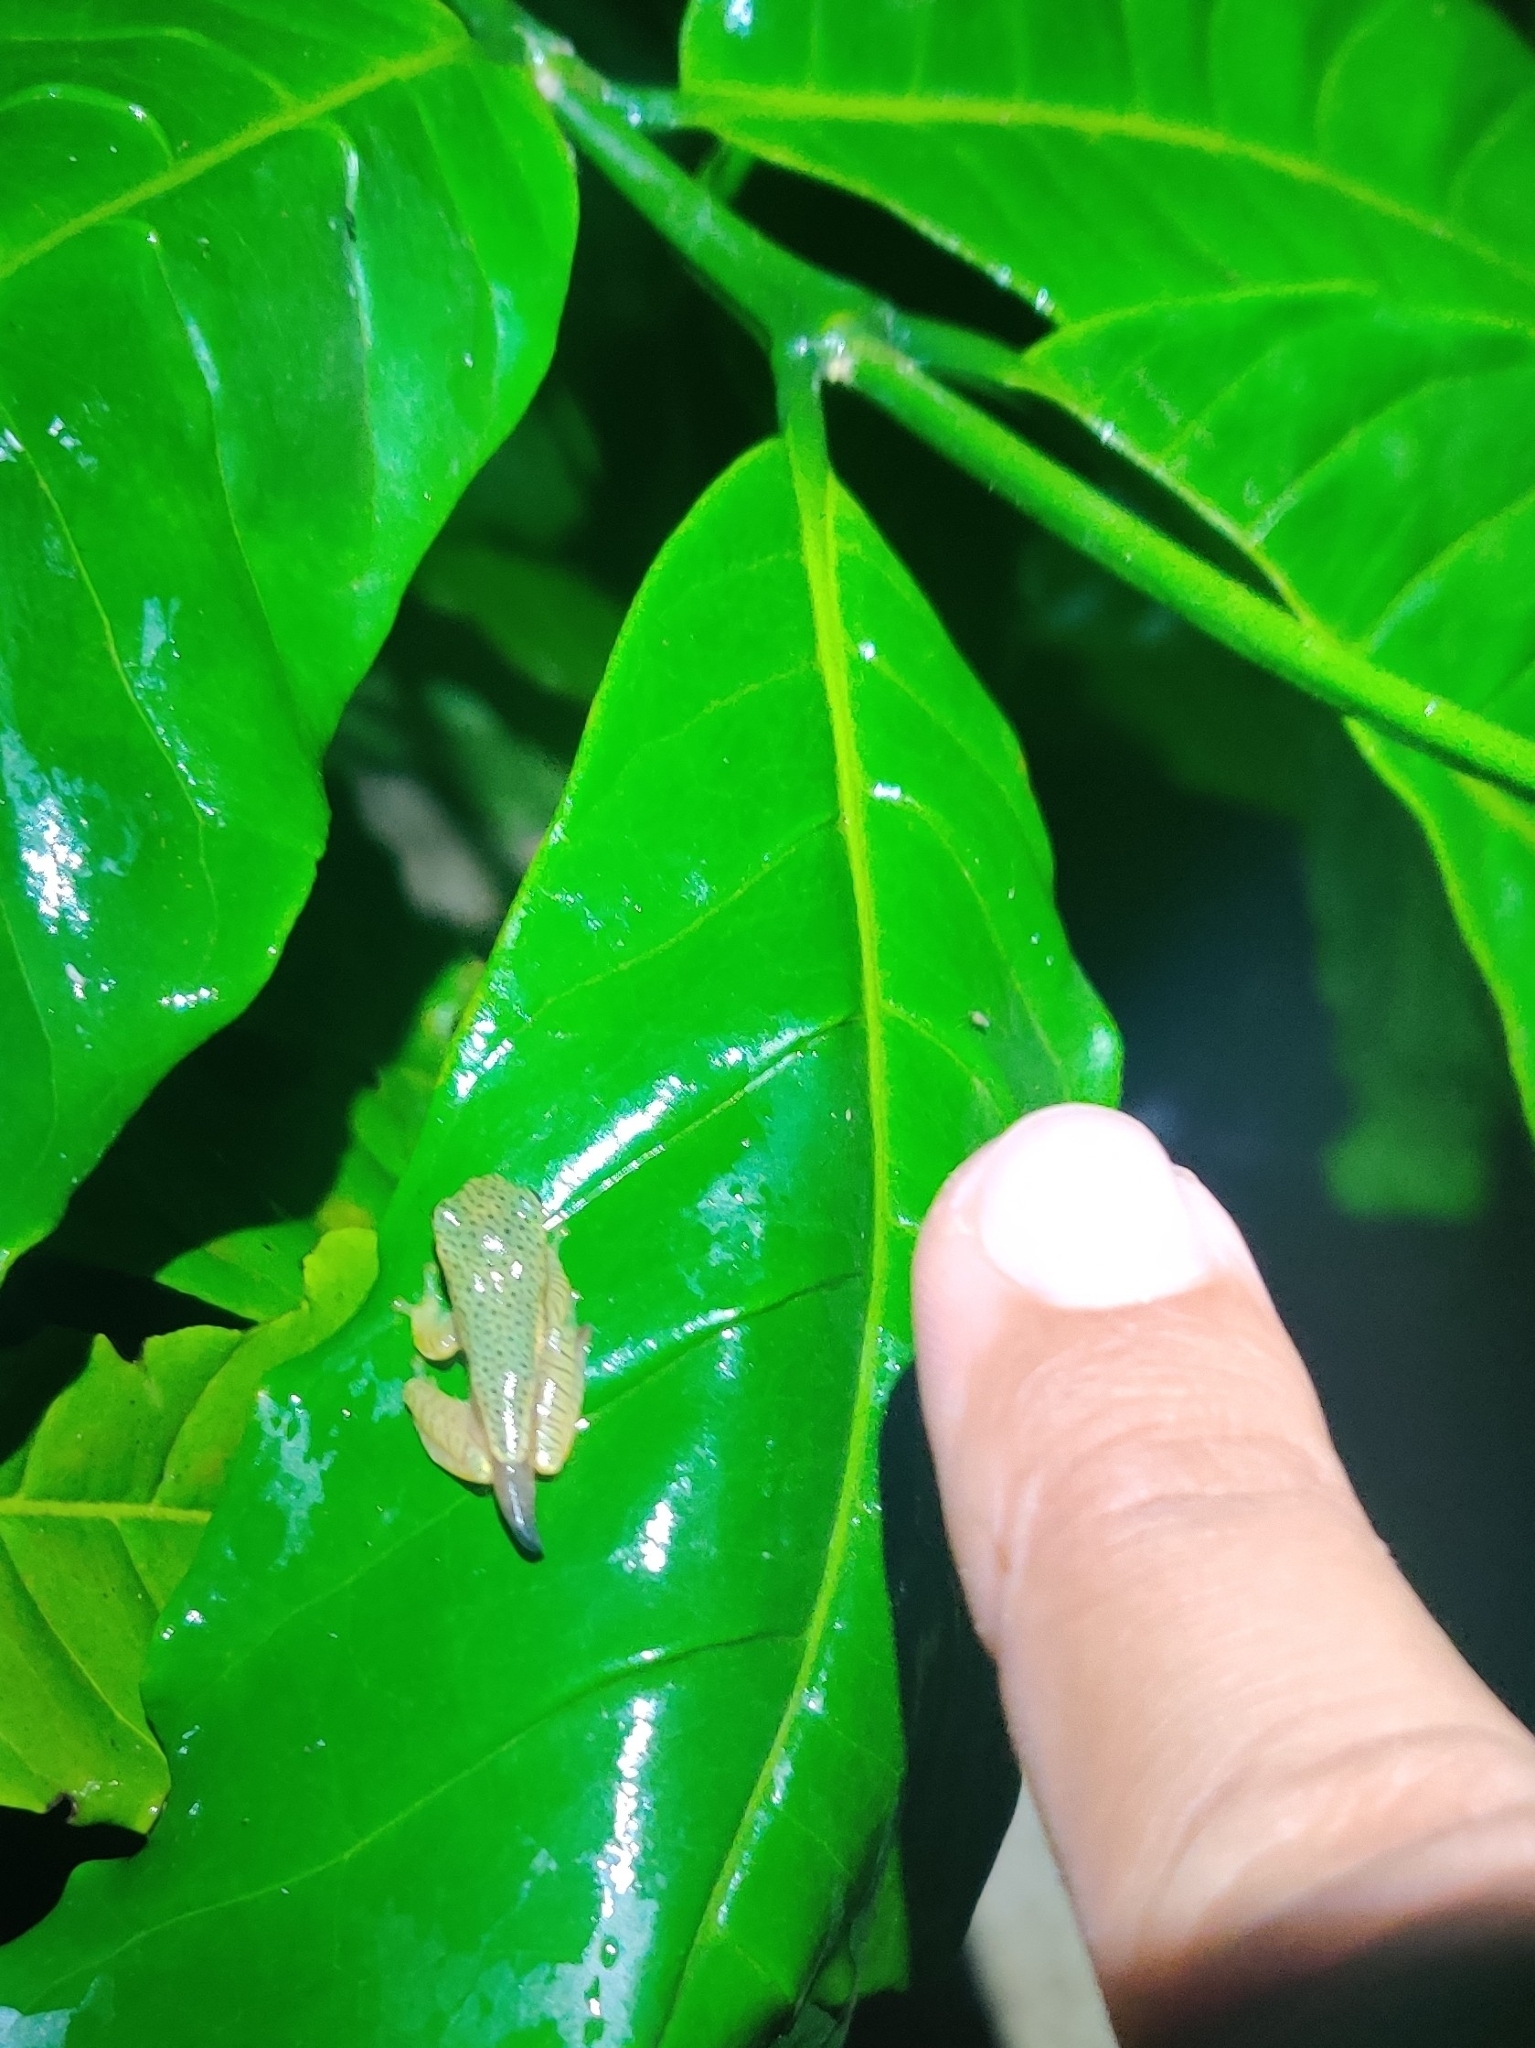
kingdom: Animalia
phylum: Chordata
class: Amphibia
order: Anura
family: Rhacophoridae
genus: Rhacophorus
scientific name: Rhacophorus lateralis
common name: Boulenger's tree frog
